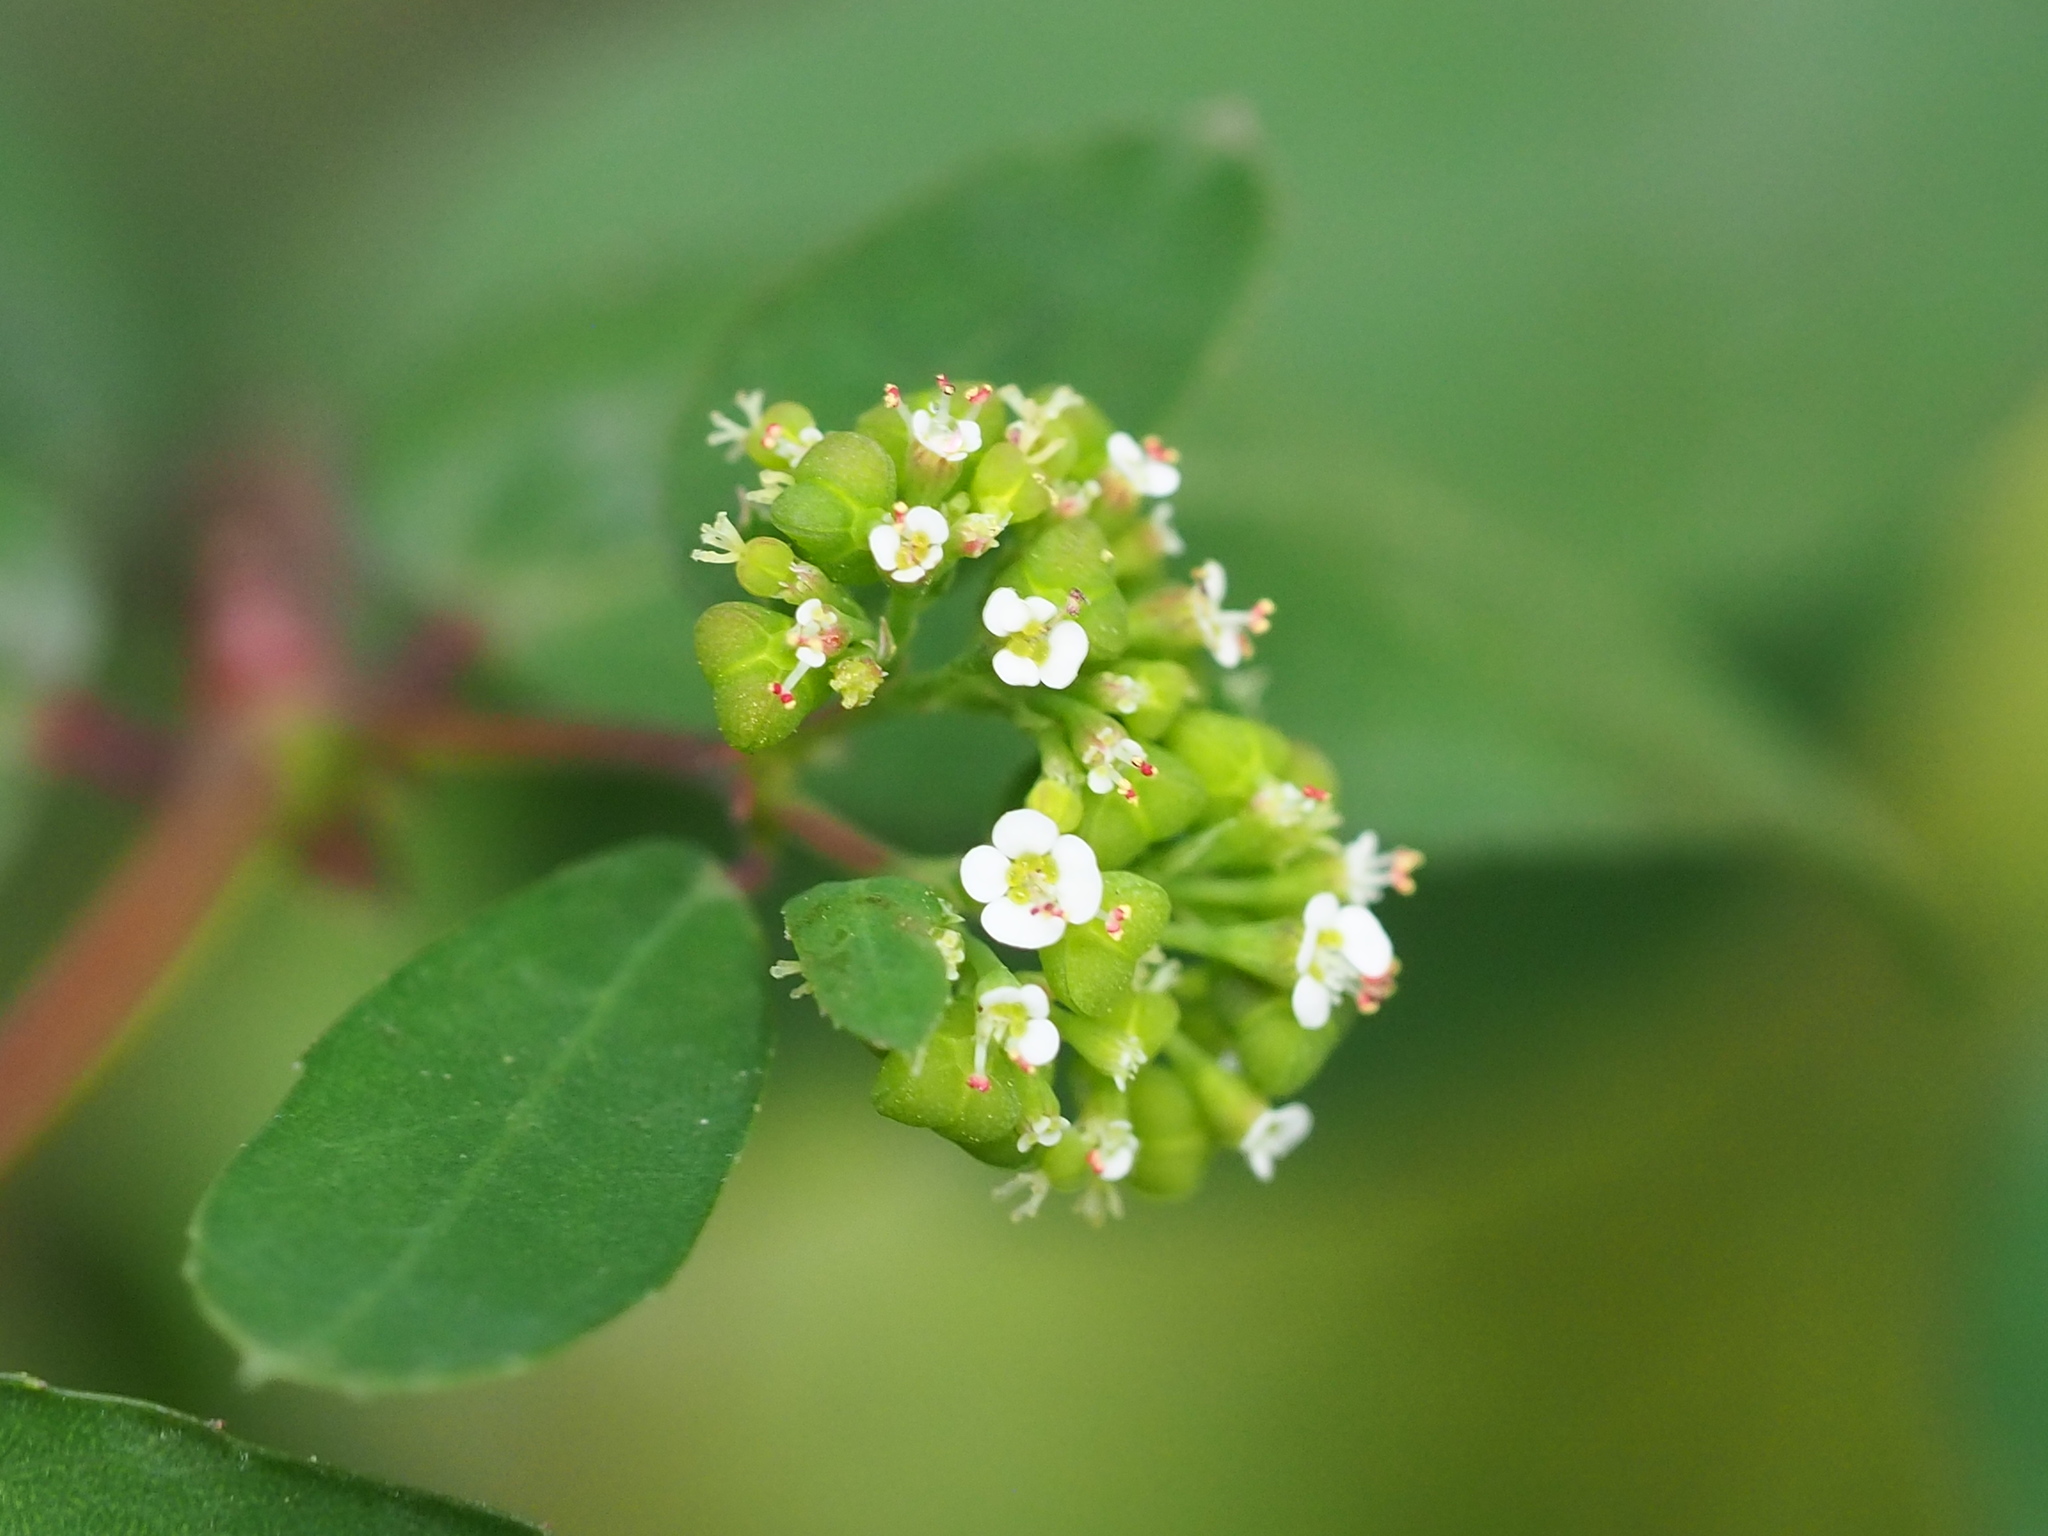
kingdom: Plantae
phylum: Tracheophyta
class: Magnoliopsida
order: Malpighiales
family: Euphorbiaceae
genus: Euphorbia
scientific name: Euphorbia hypericifolia
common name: Graceful sandmat
